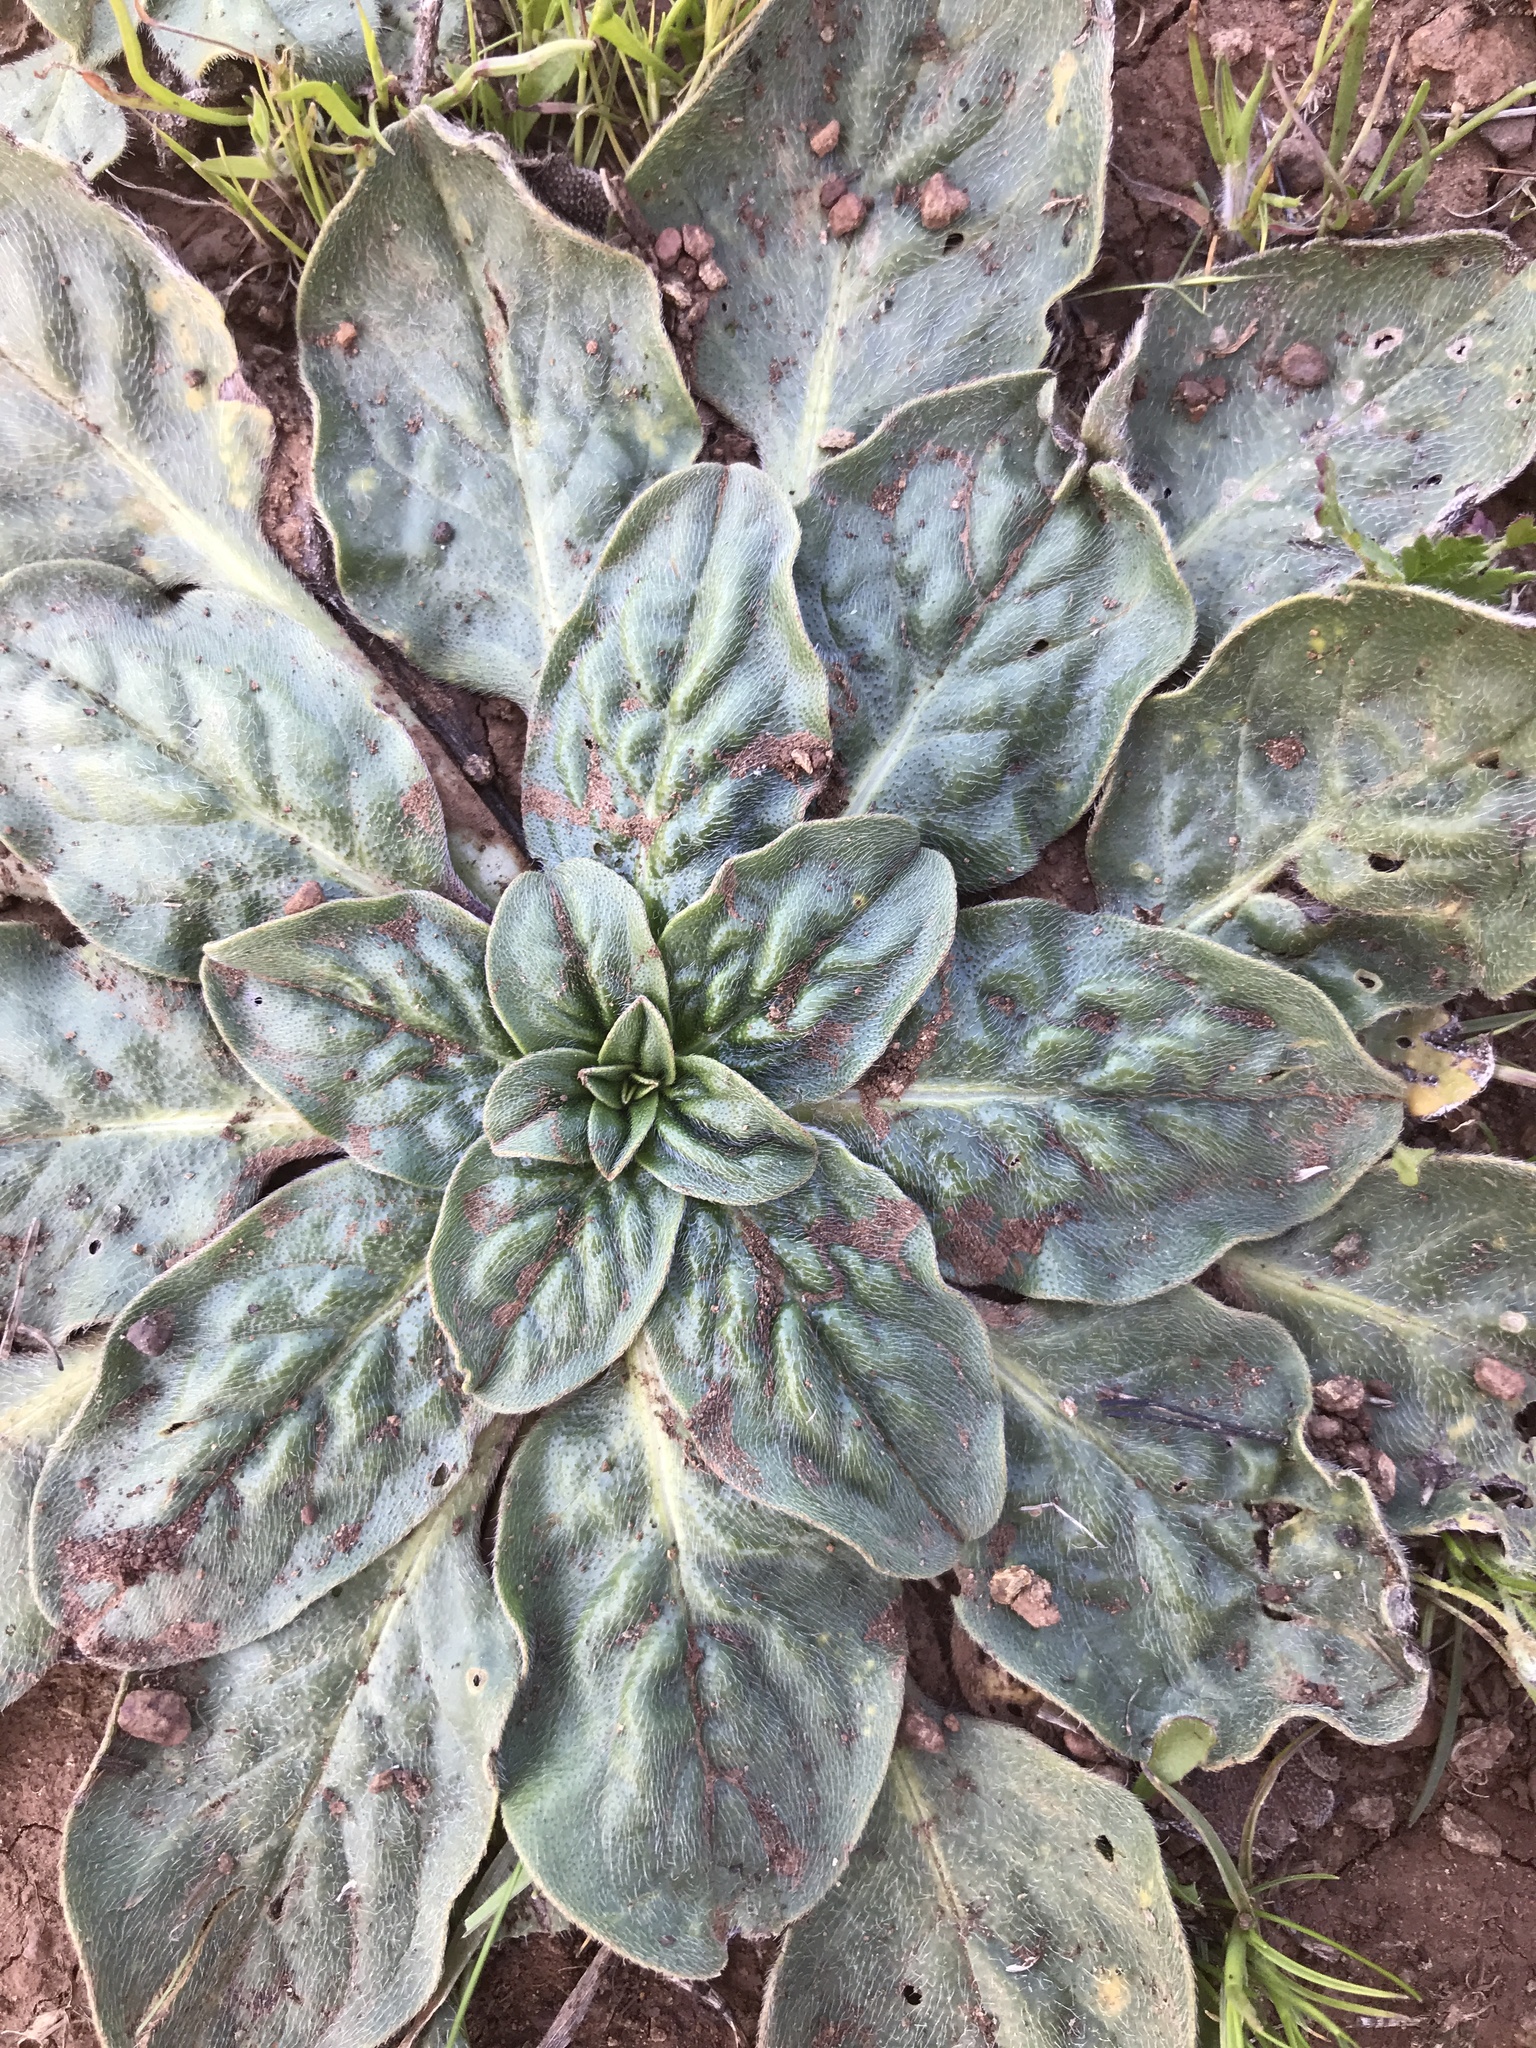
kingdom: Plantae
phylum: Tracheophyta
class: Magnoliopsida
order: Boraginales
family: Boraginaceae
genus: Echium
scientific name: Echium plantagineum
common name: Purple viper's-bugloss
